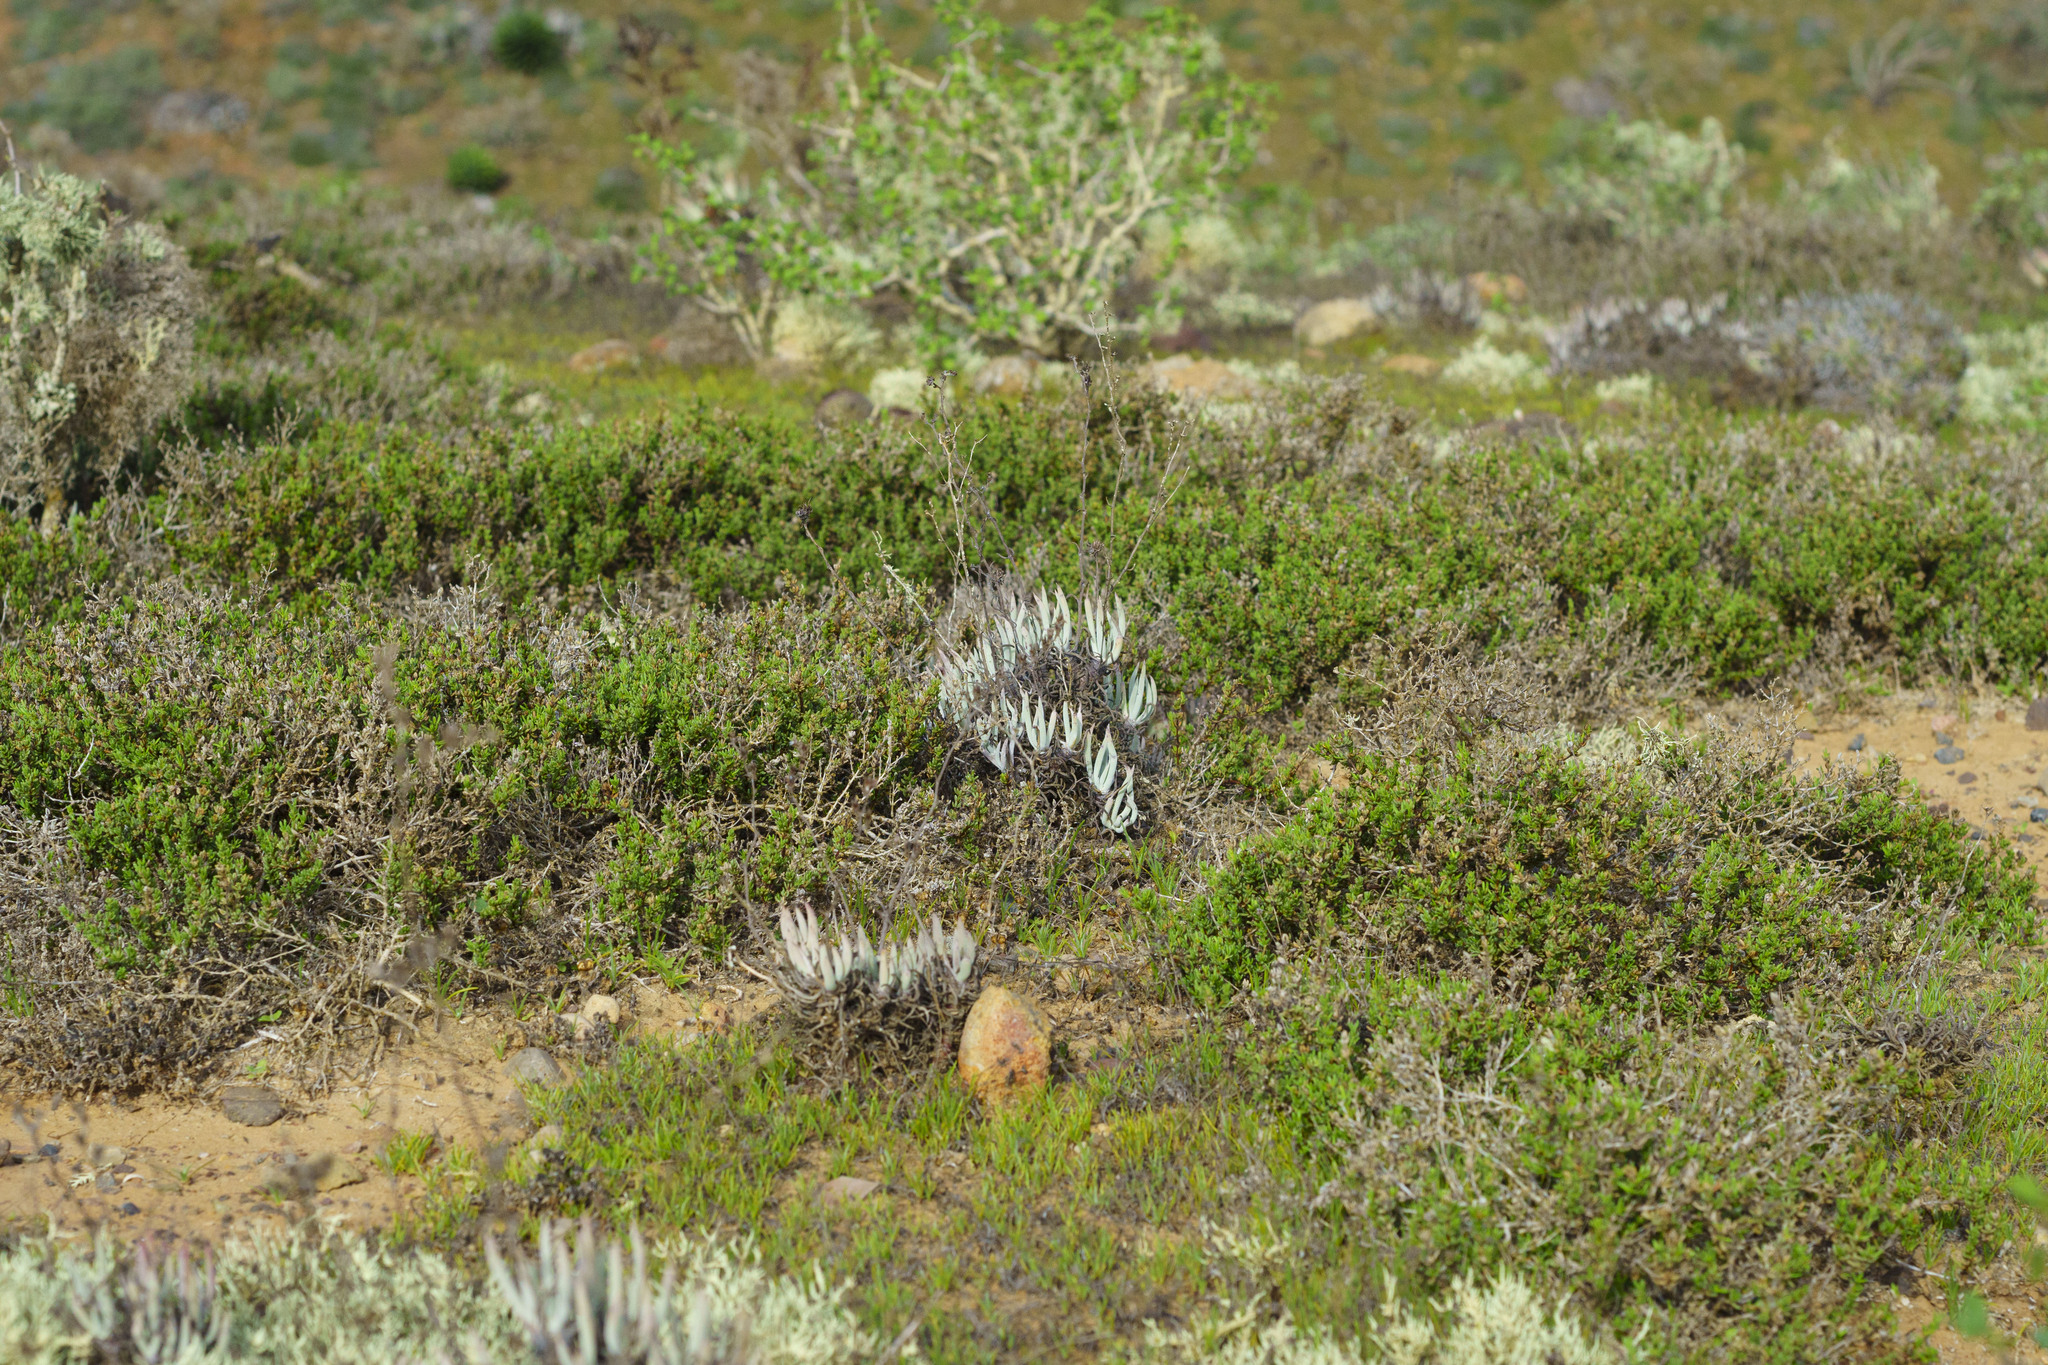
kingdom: Plantae
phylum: Tracheophyta
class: Magnoliopsida
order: Saxifragales
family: Crassulaceae
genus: Dudleya
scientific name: Dudleya attenuata
